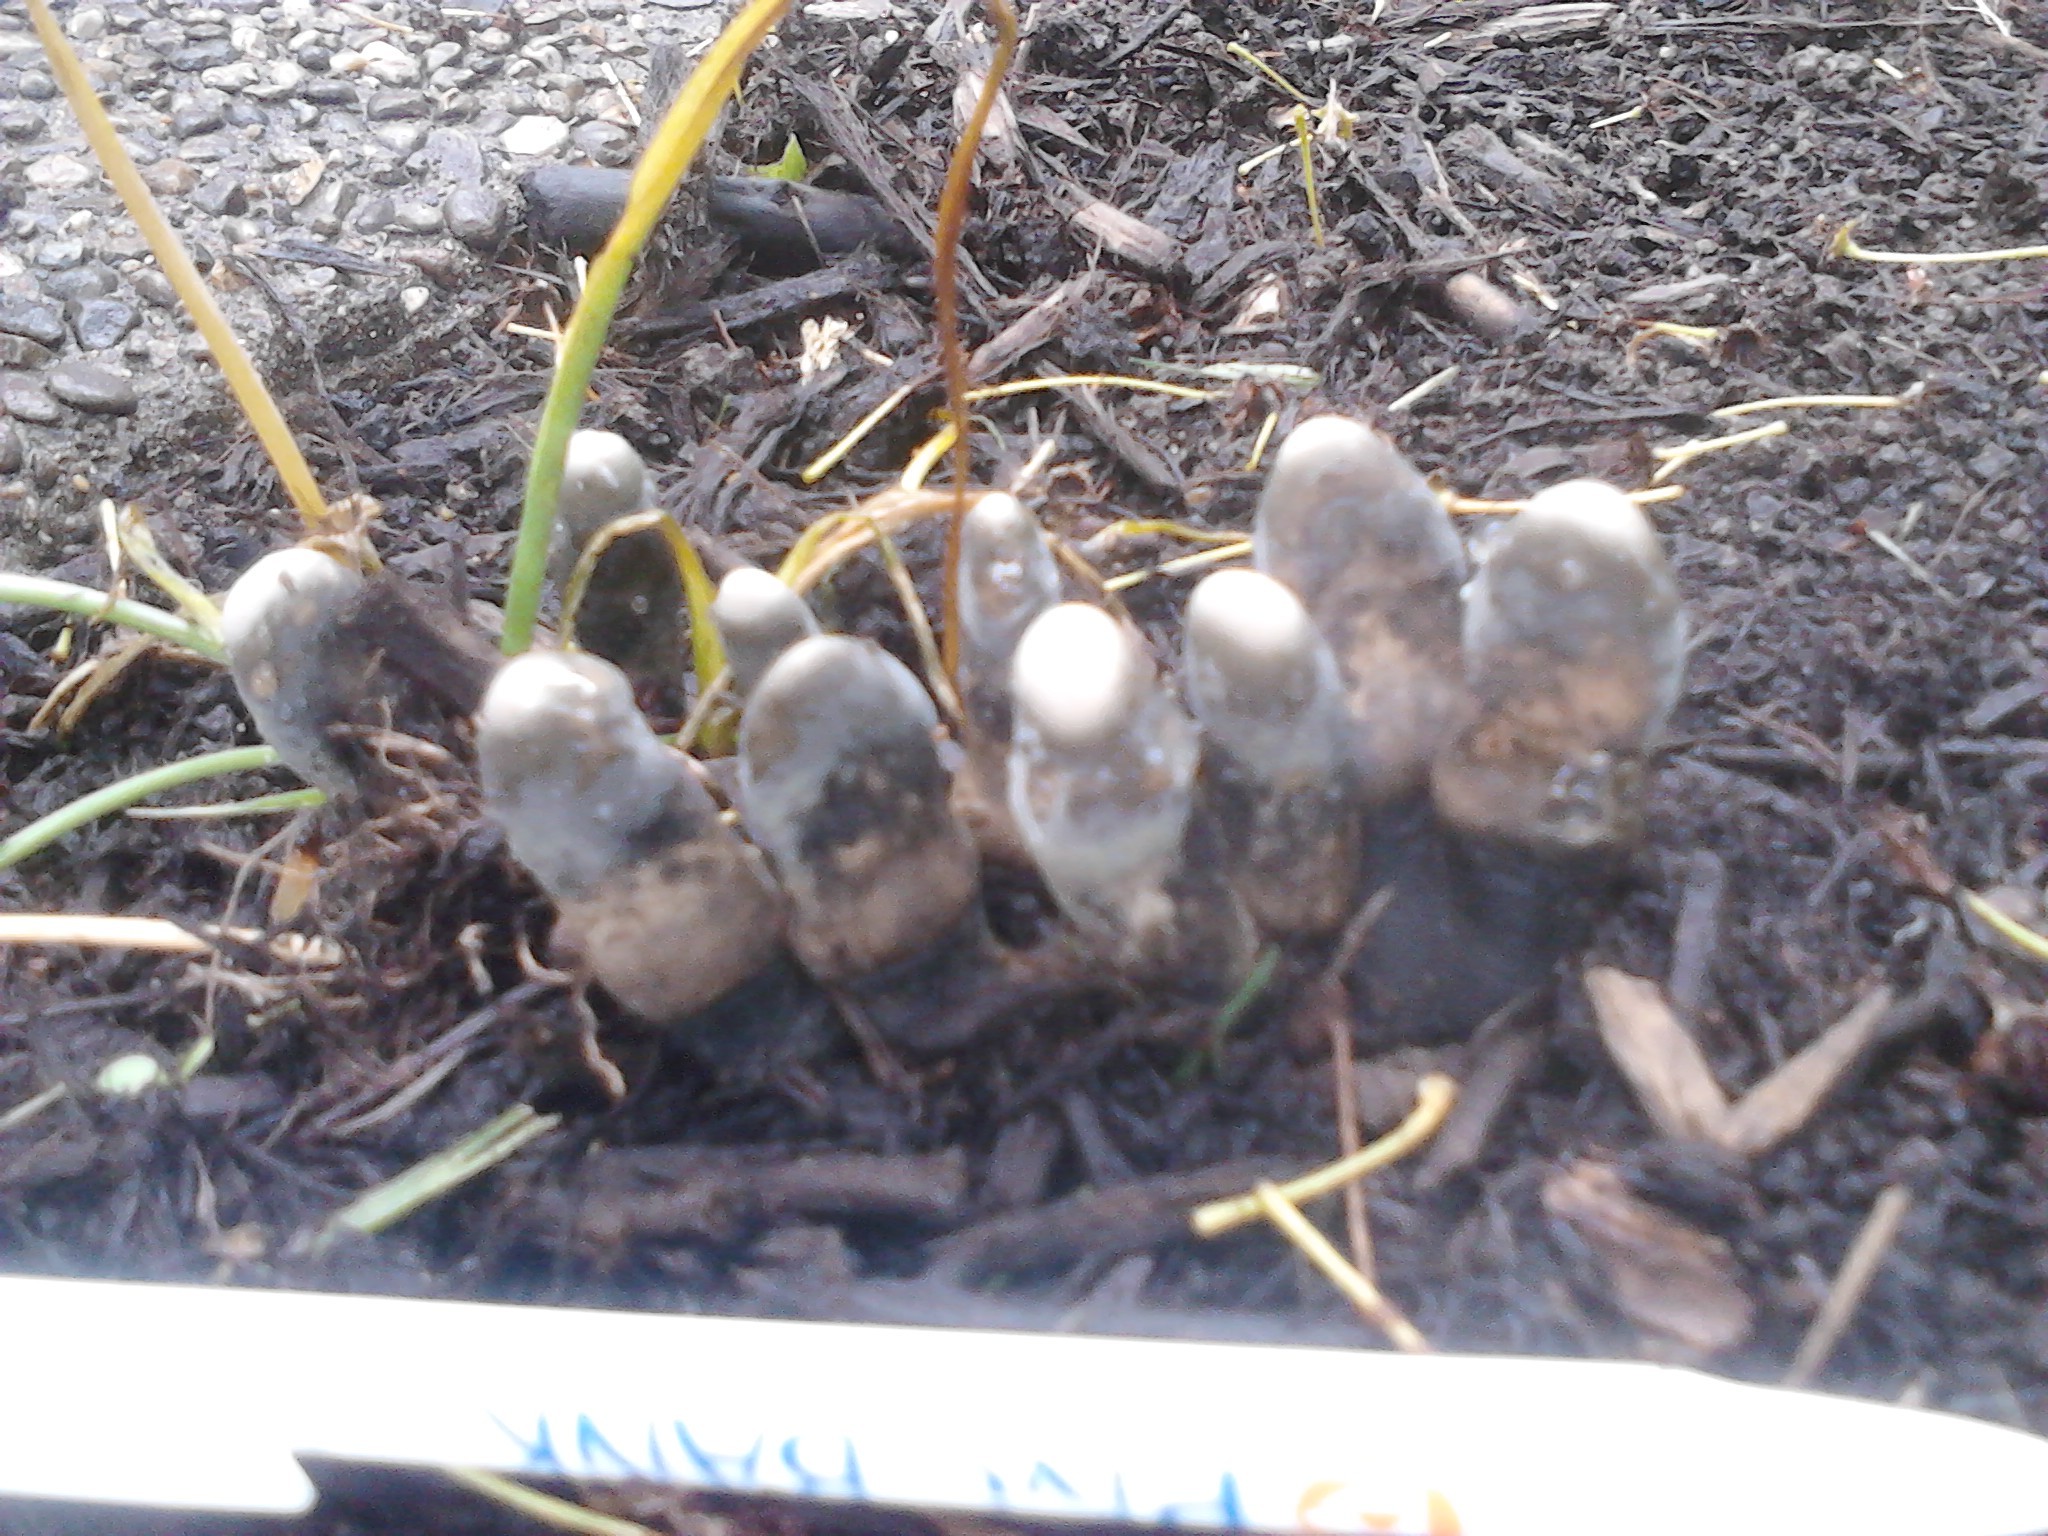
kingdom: Fungi
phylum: Ascomycota
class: Sordariomycetes
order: Xylariales
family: Xylariaceae
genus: Xylaria
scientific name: Xylaria polymorpha
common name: Dead man's fingers
